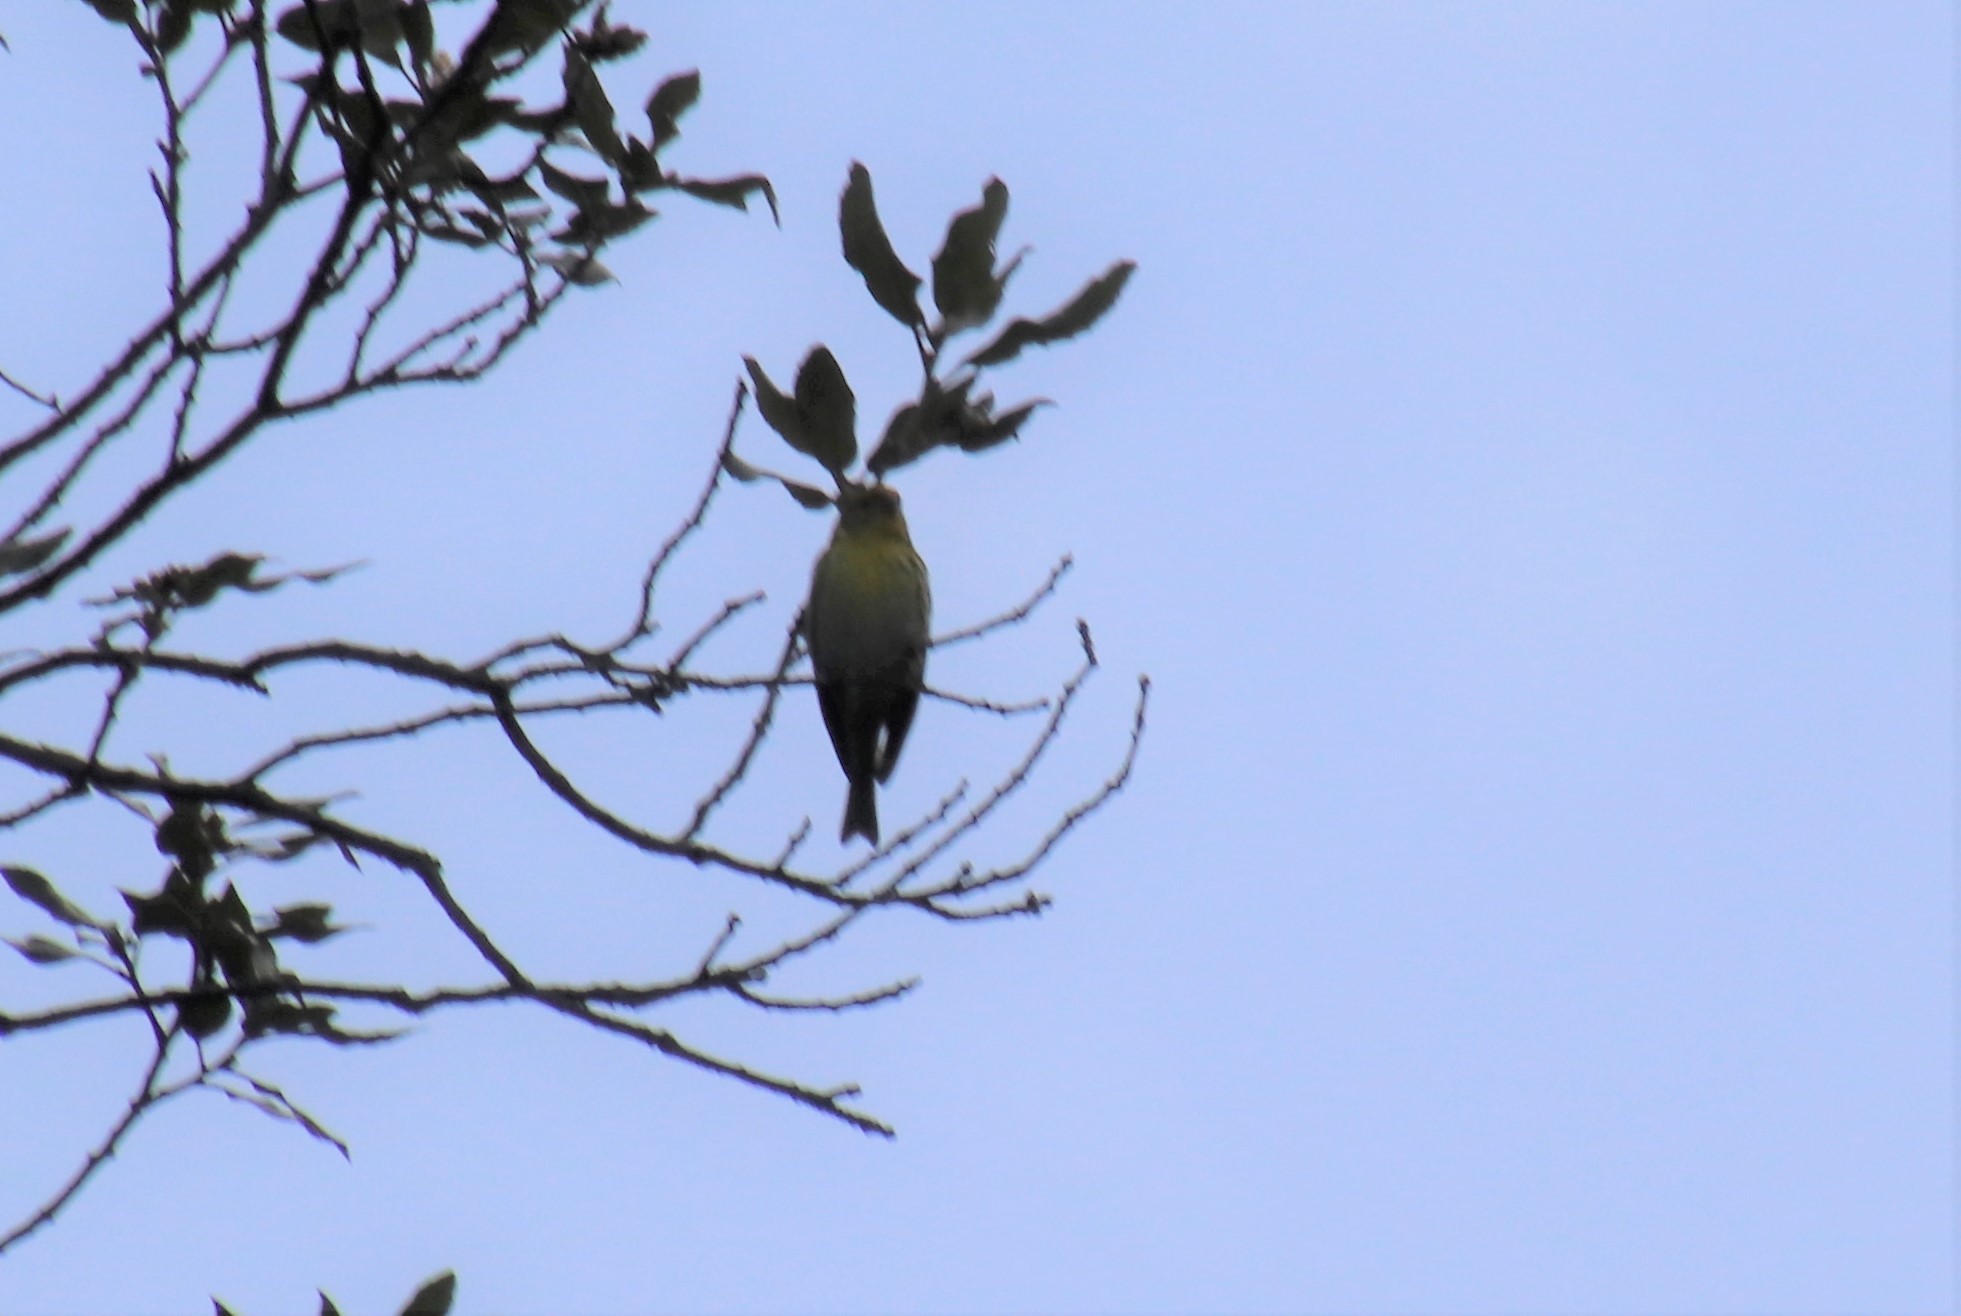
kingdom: Animalia
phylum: Chordata
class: Aves
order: Passeriformes
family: Fringillidae
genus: Serinus
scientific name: Serinus serinus
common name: European serin
